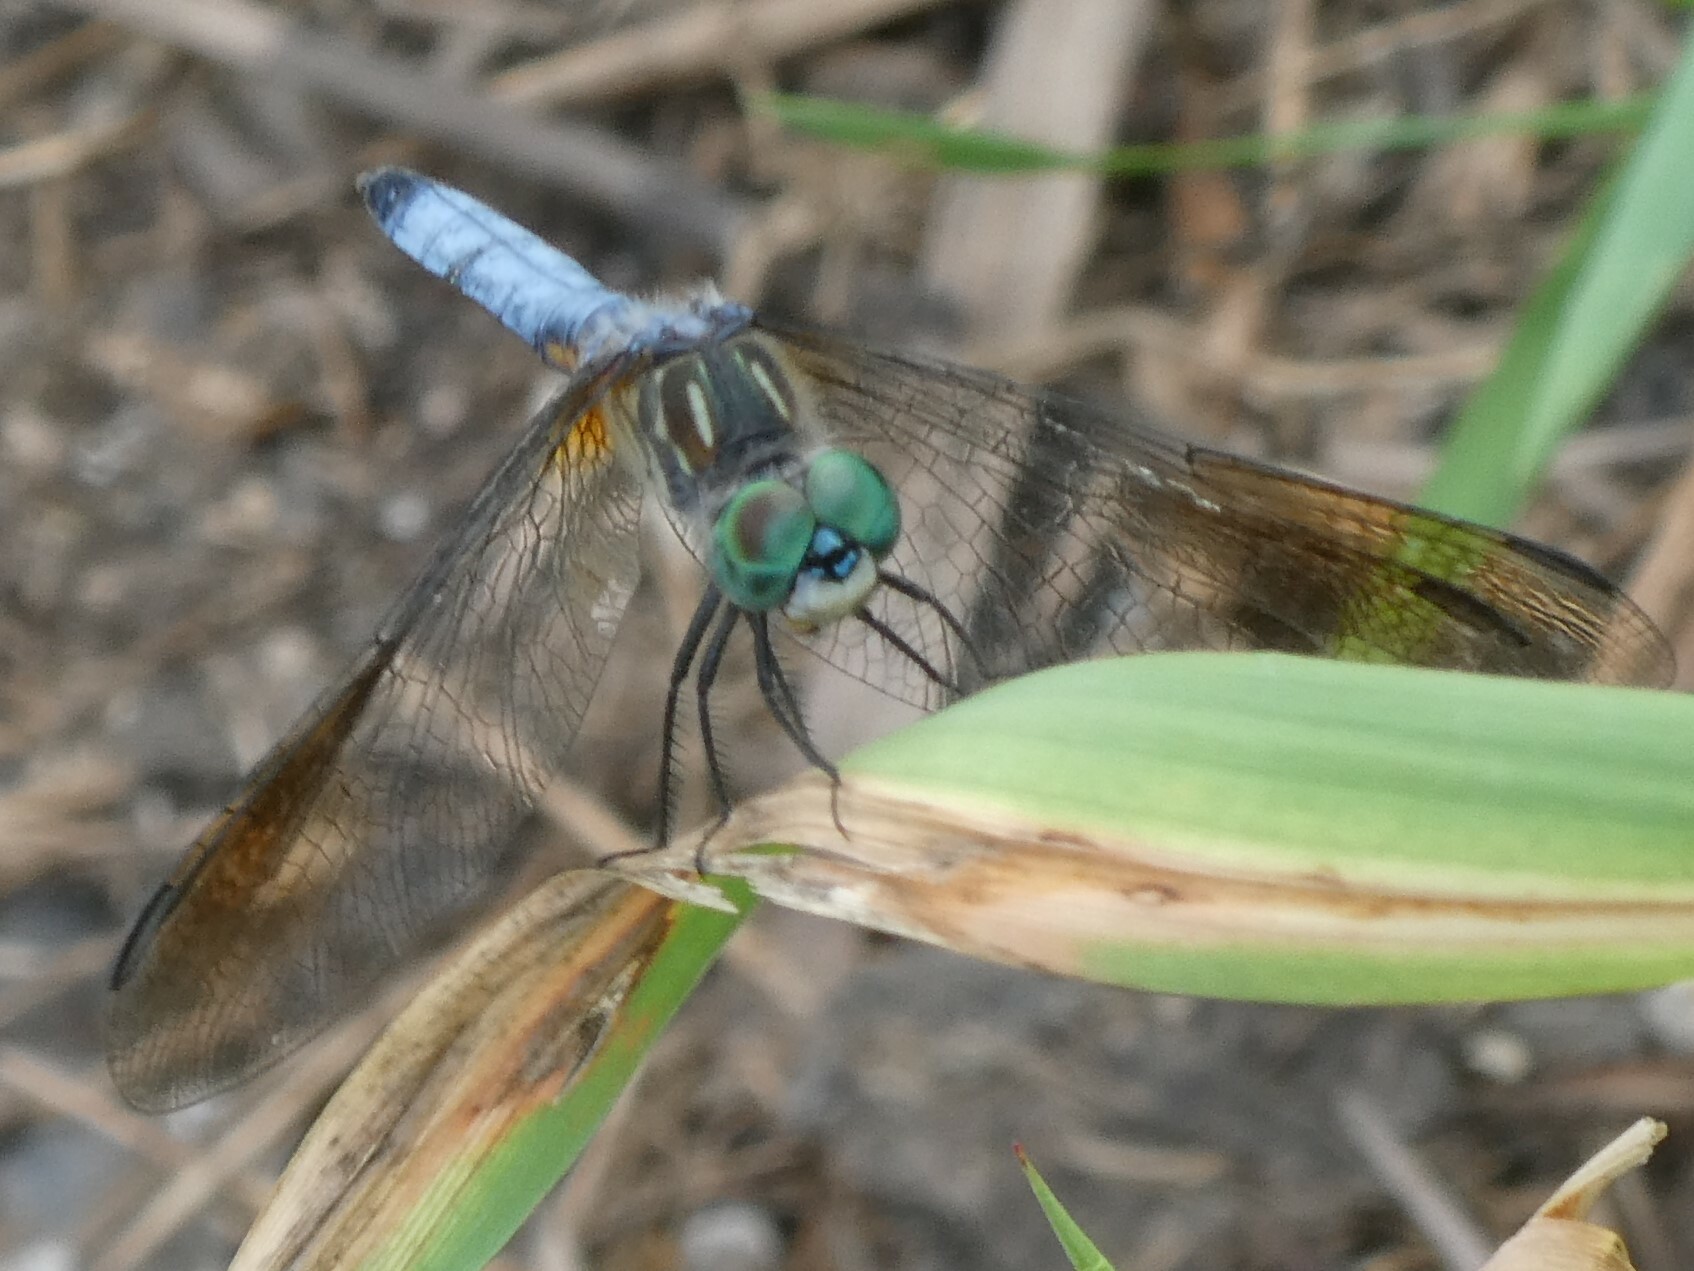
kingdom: Animalia
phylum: Arthropoda
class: Insecta
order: Odonata
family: Libellulidae
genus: Pachydiplax
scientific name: Pachydiplax longipennis
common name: Blue dasher
